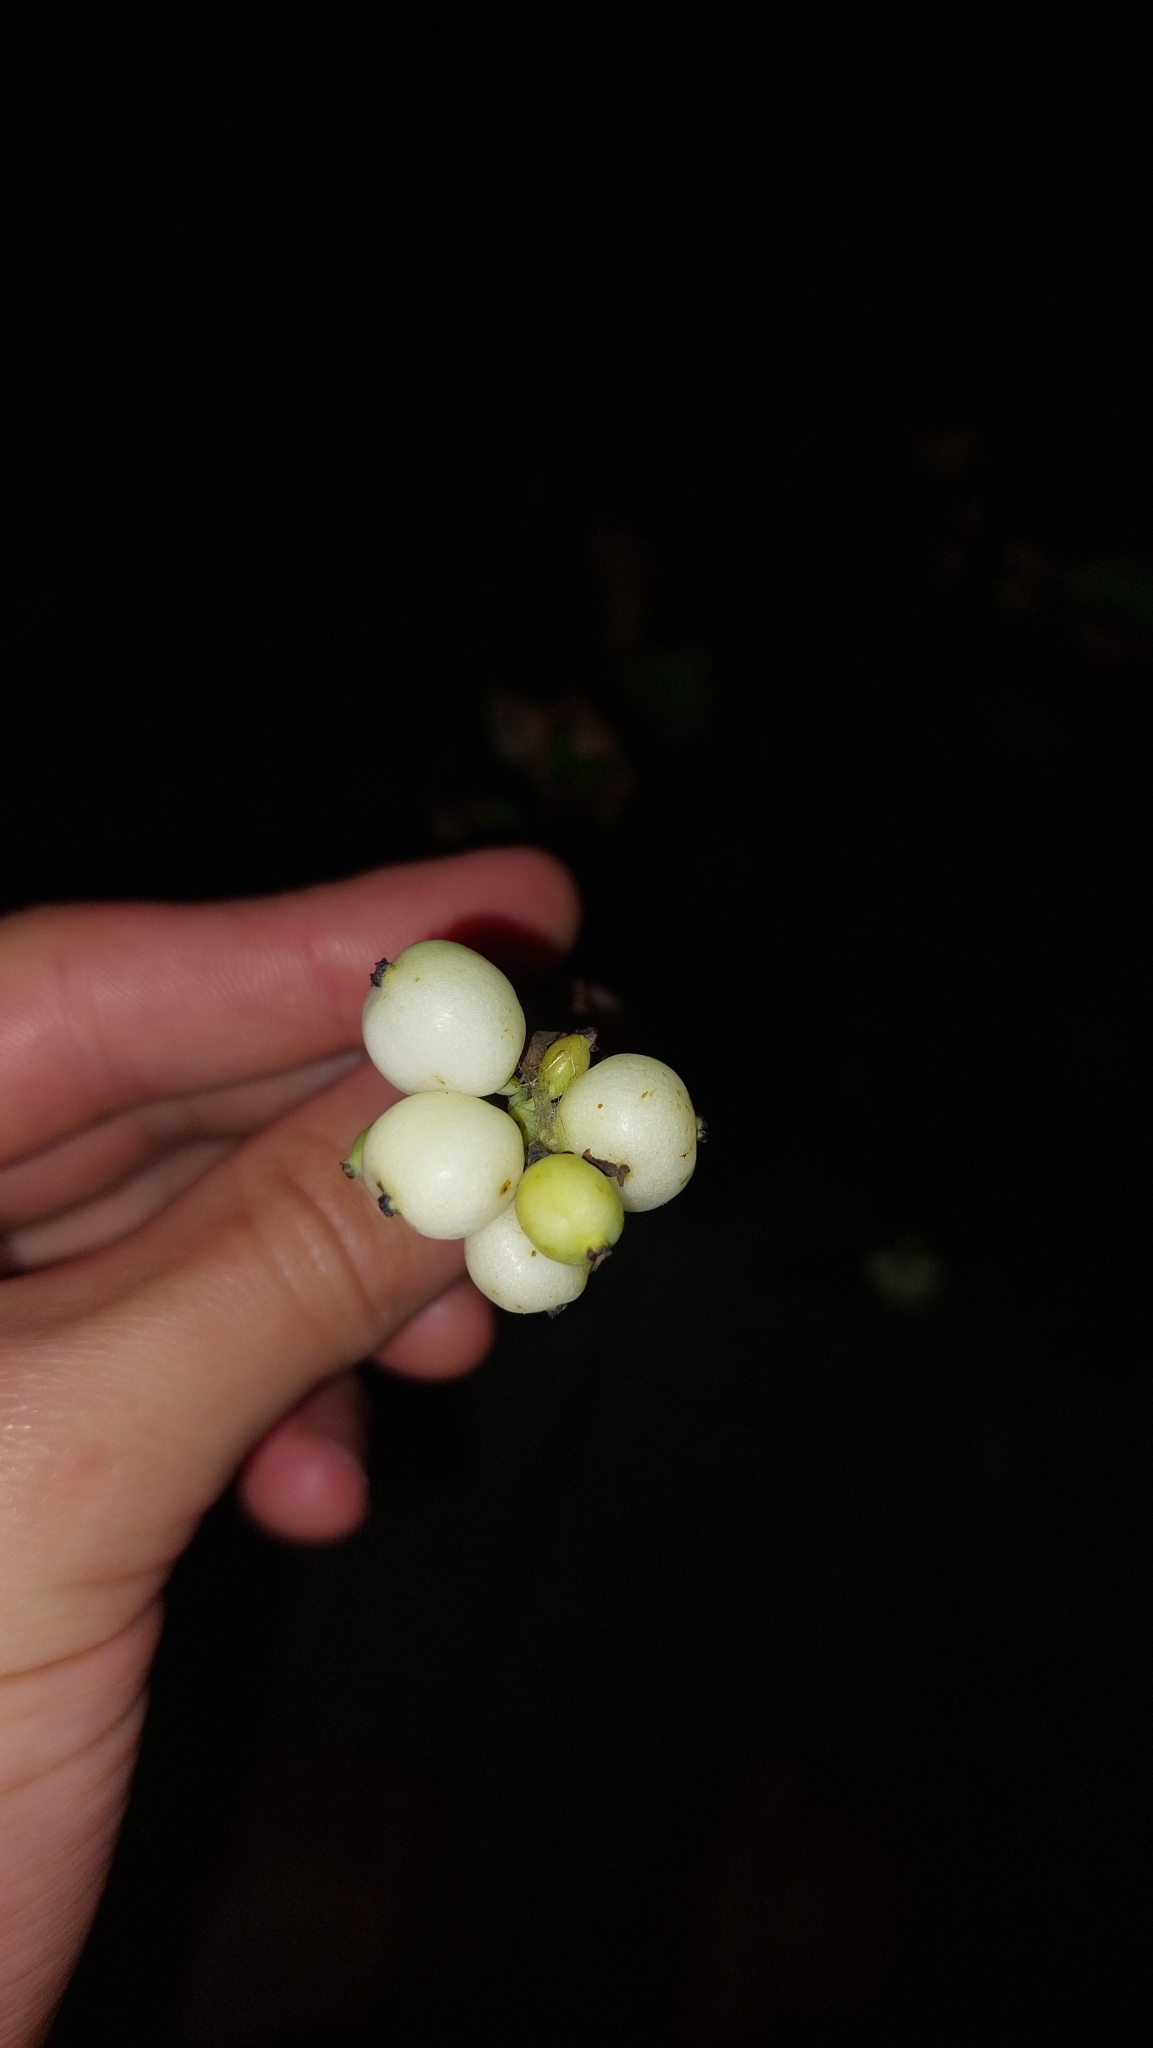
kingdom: Plantae
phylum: Tracheophyta
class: Magnoliopsida
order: Dipsacales
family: Caprifoliaceae
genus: Symphoricarpos
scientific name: Symphoricarpos albus
